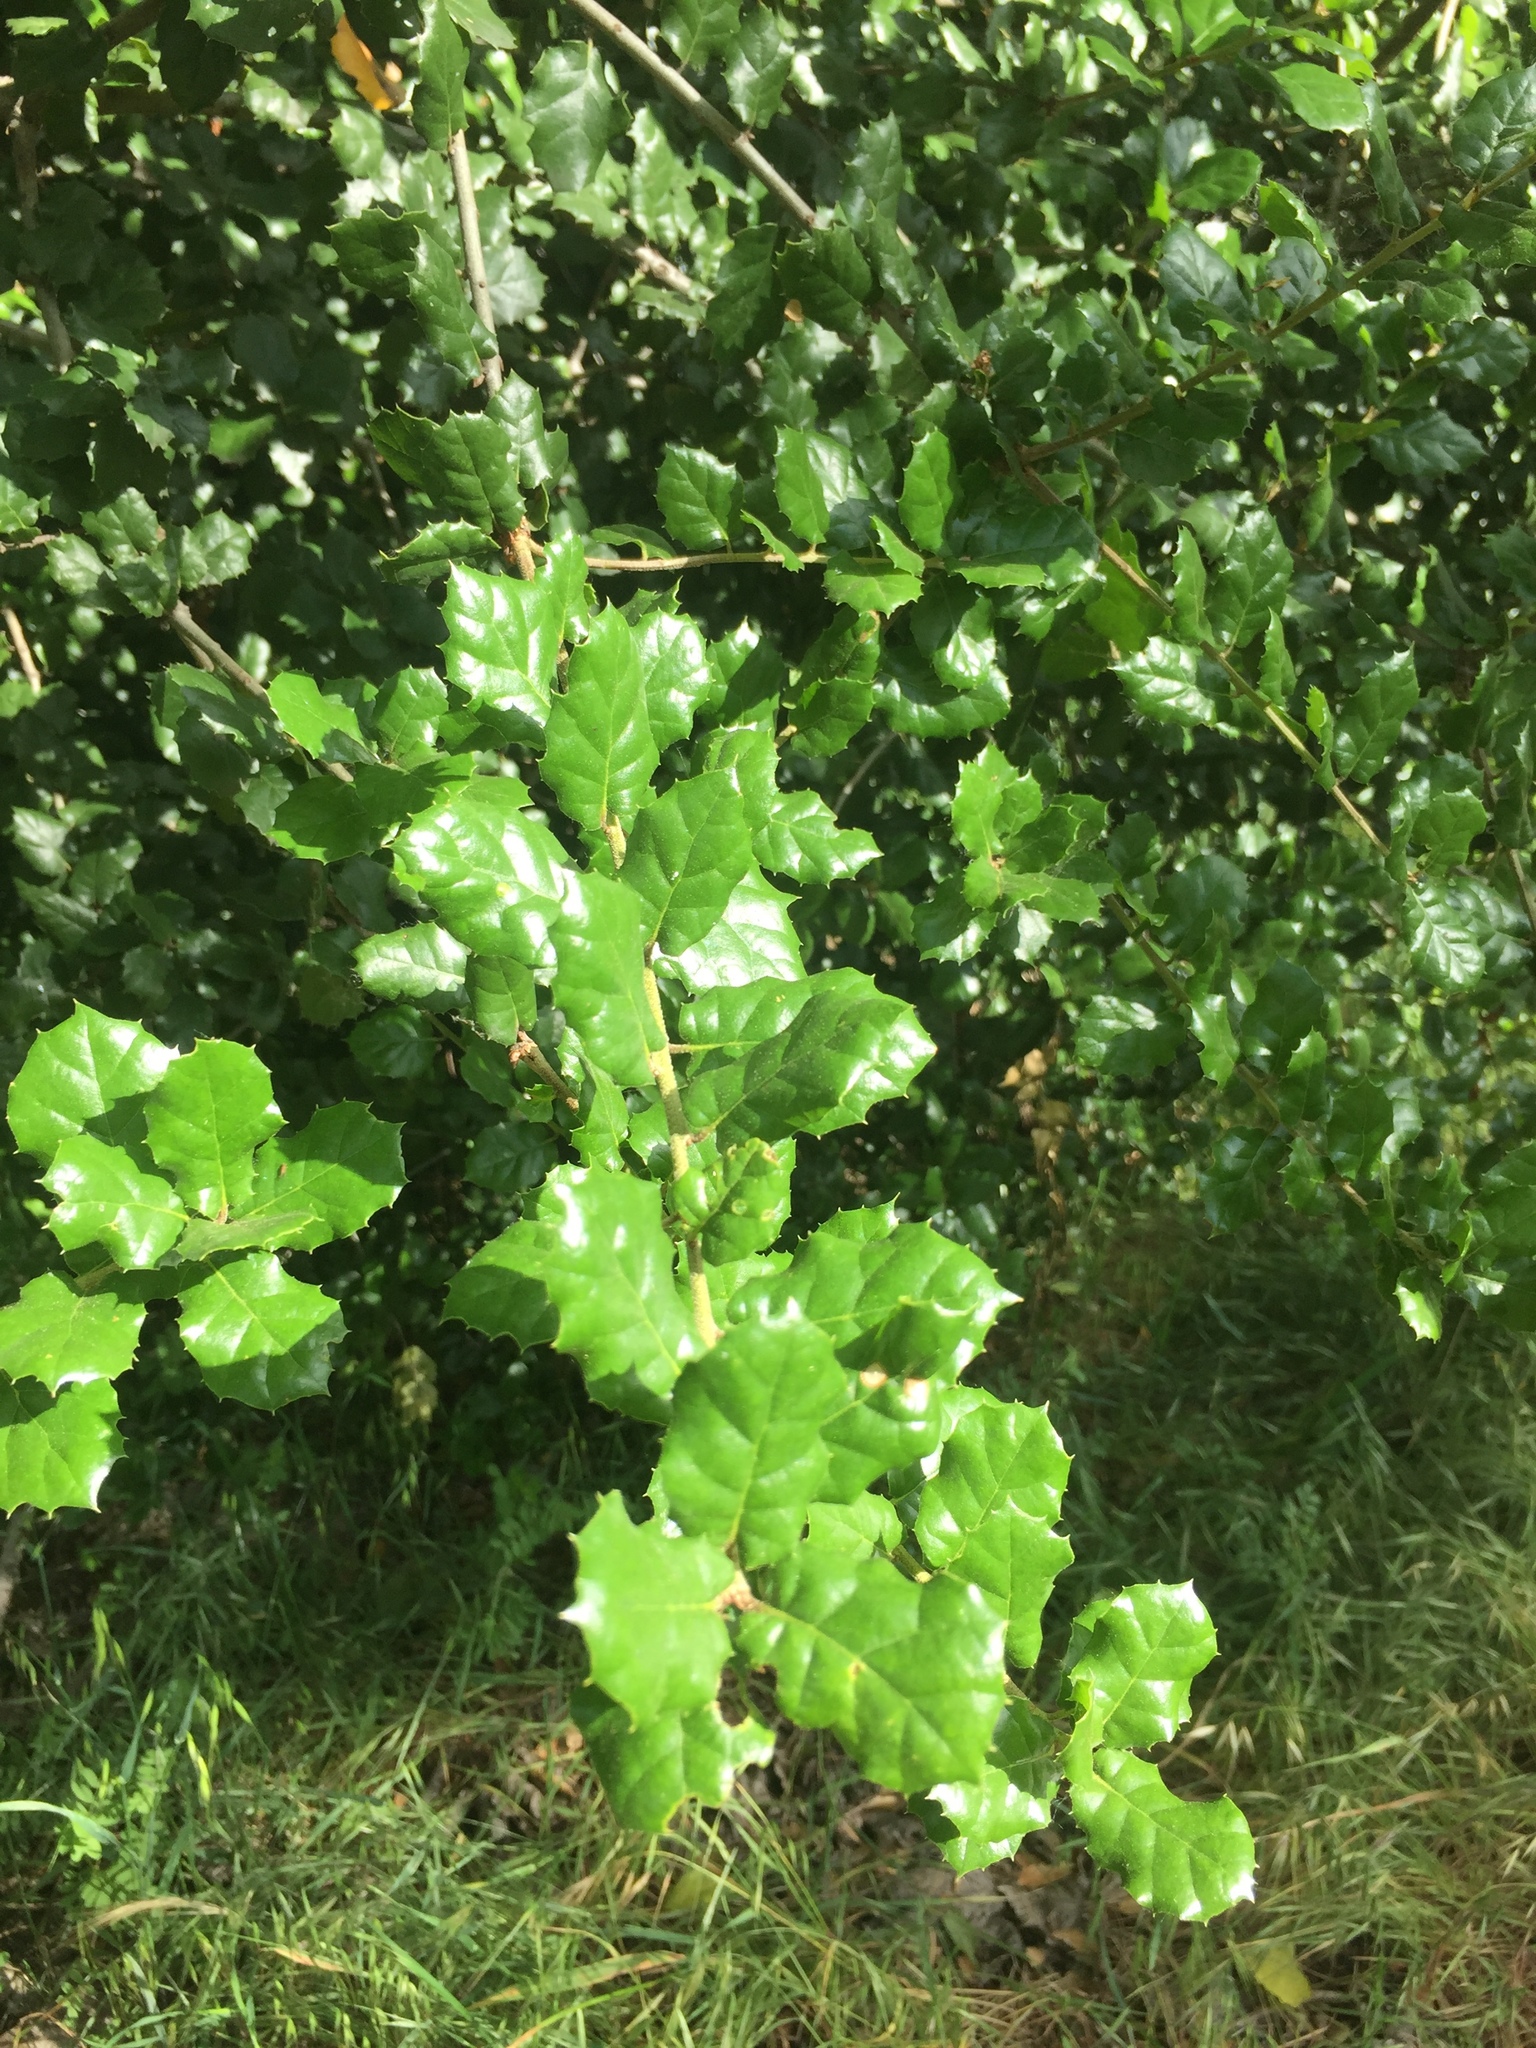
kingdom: Plantae
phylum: Tracheophyta
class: Magnoliopsida
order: Fagales
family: Fagaceae
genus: Quercus
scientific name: Quercus agrifolia
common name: California live oak
